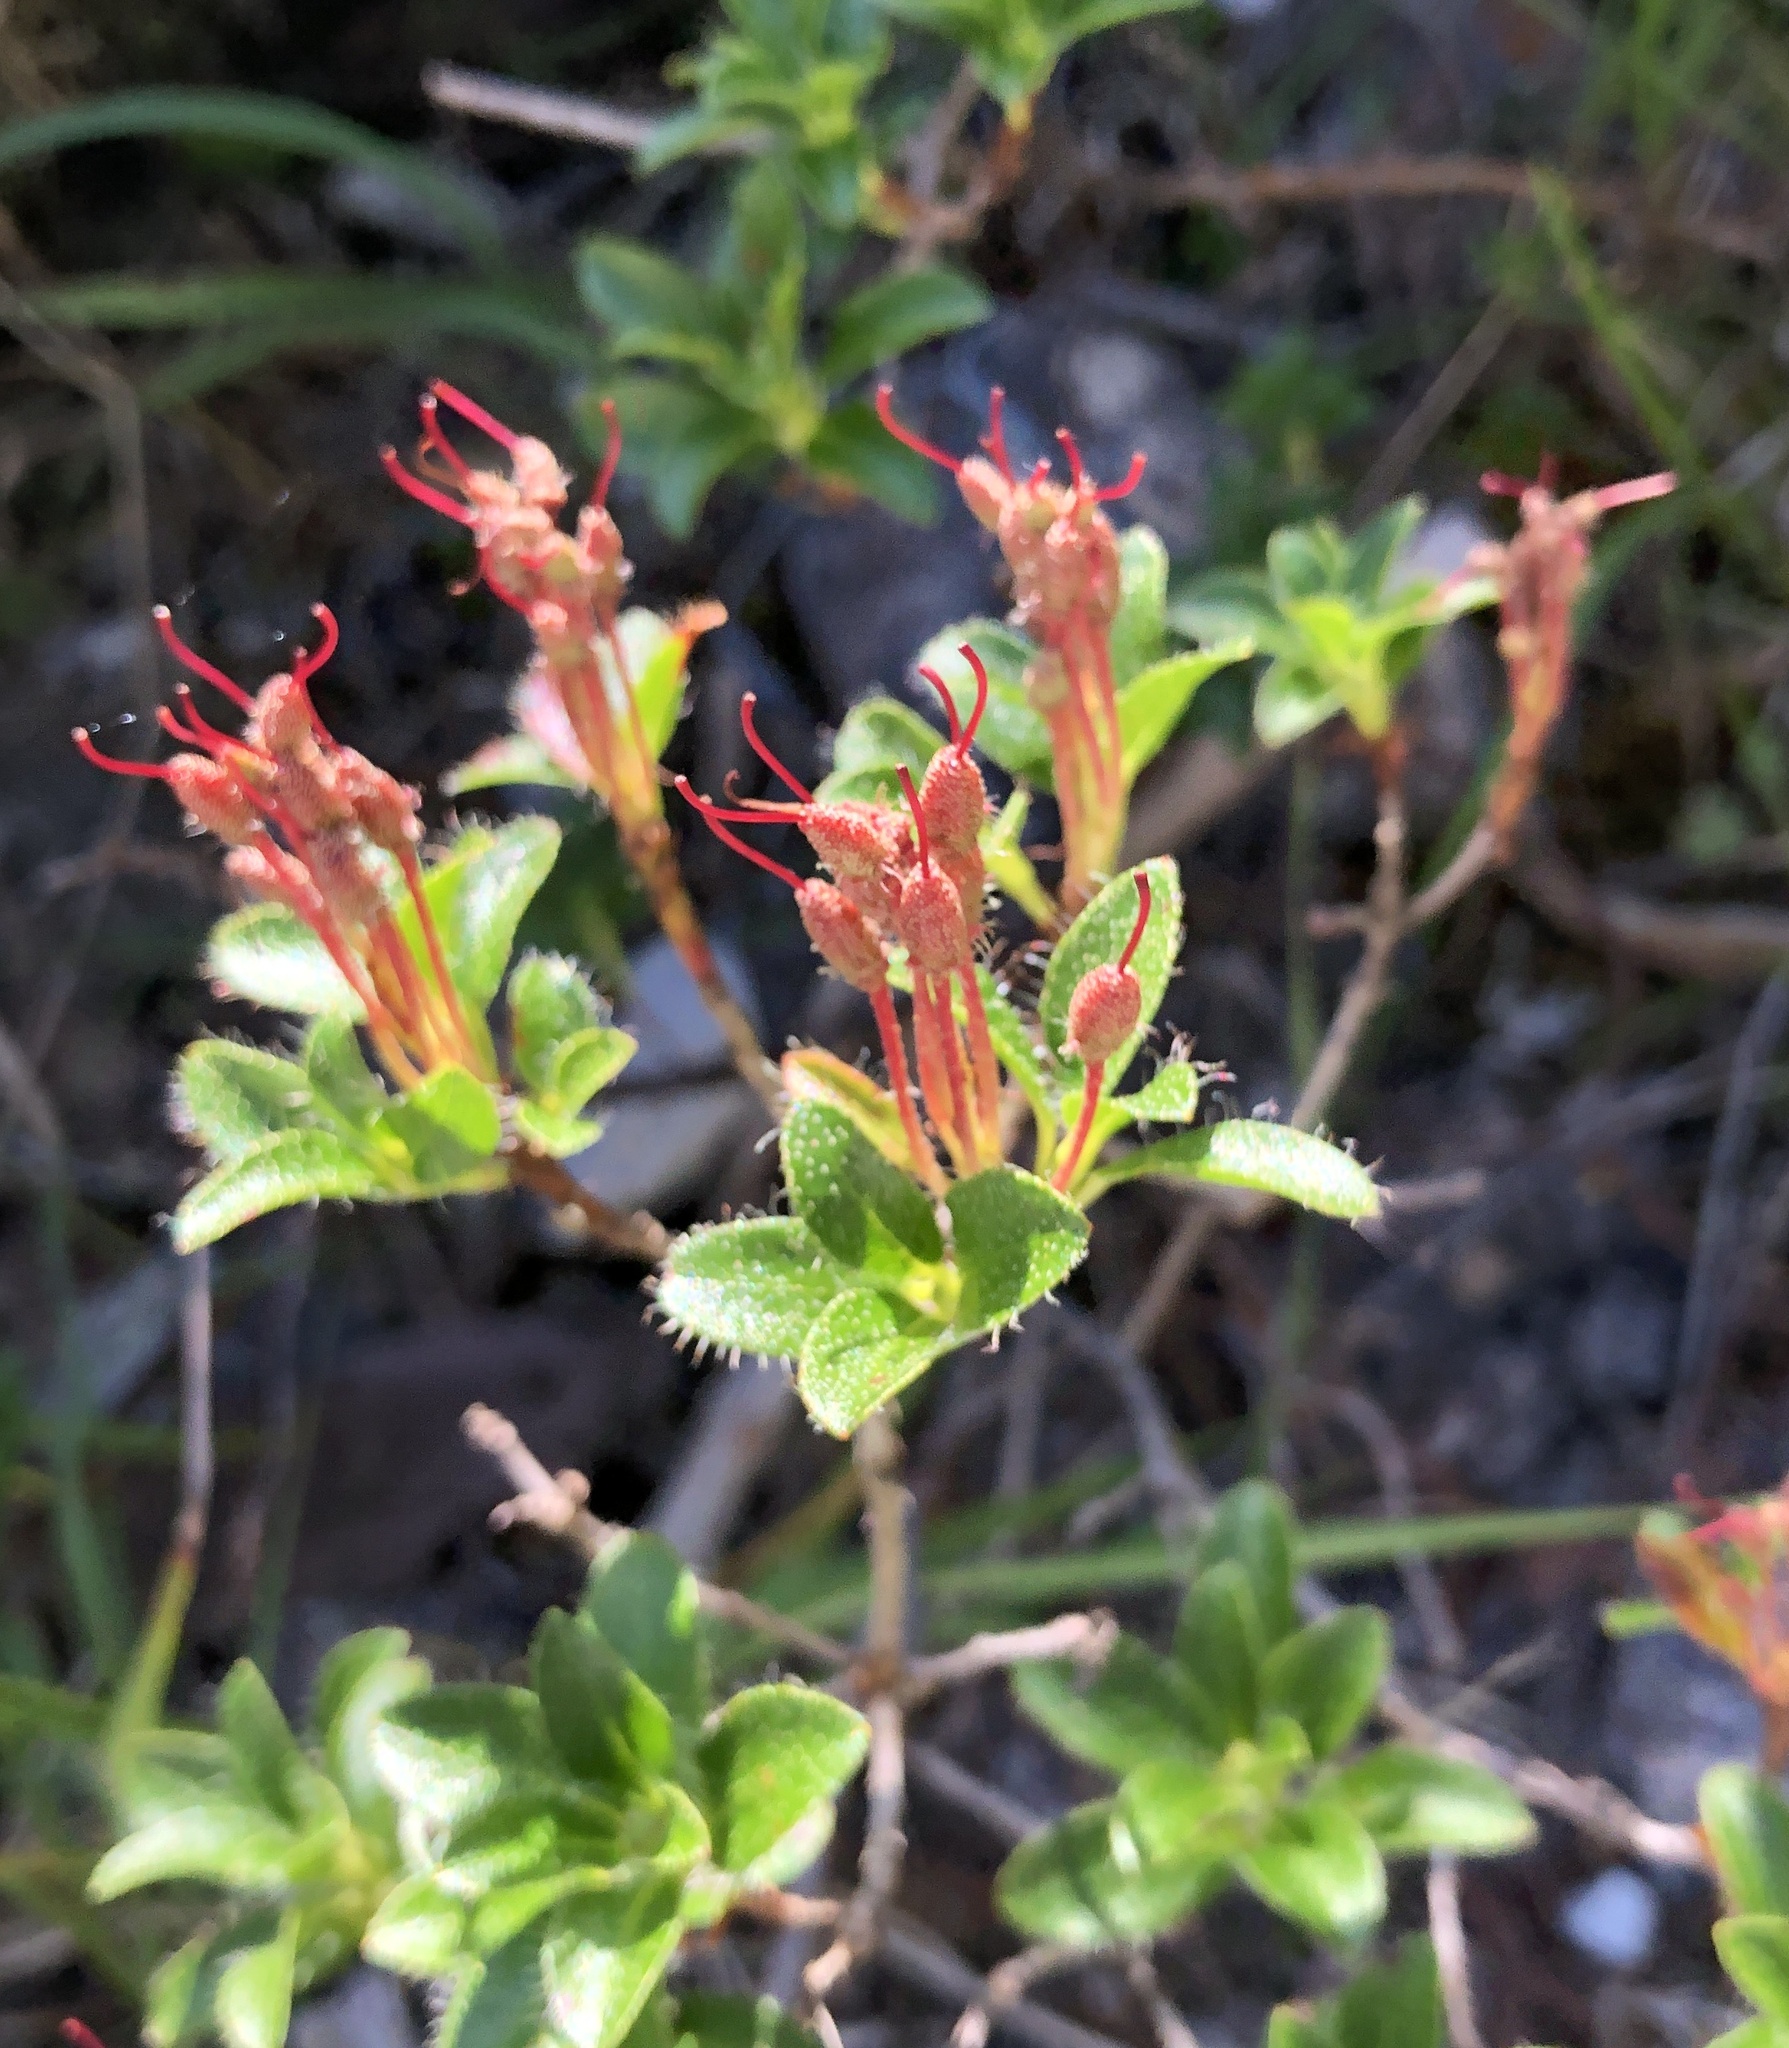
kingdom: Plantae
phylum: Tracheophyta
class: Magnoliopsida
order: Ericales
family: Ericaceae
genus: Rhododendron
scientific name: Rhododendron hirsutum
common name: Hairy alpenrose
